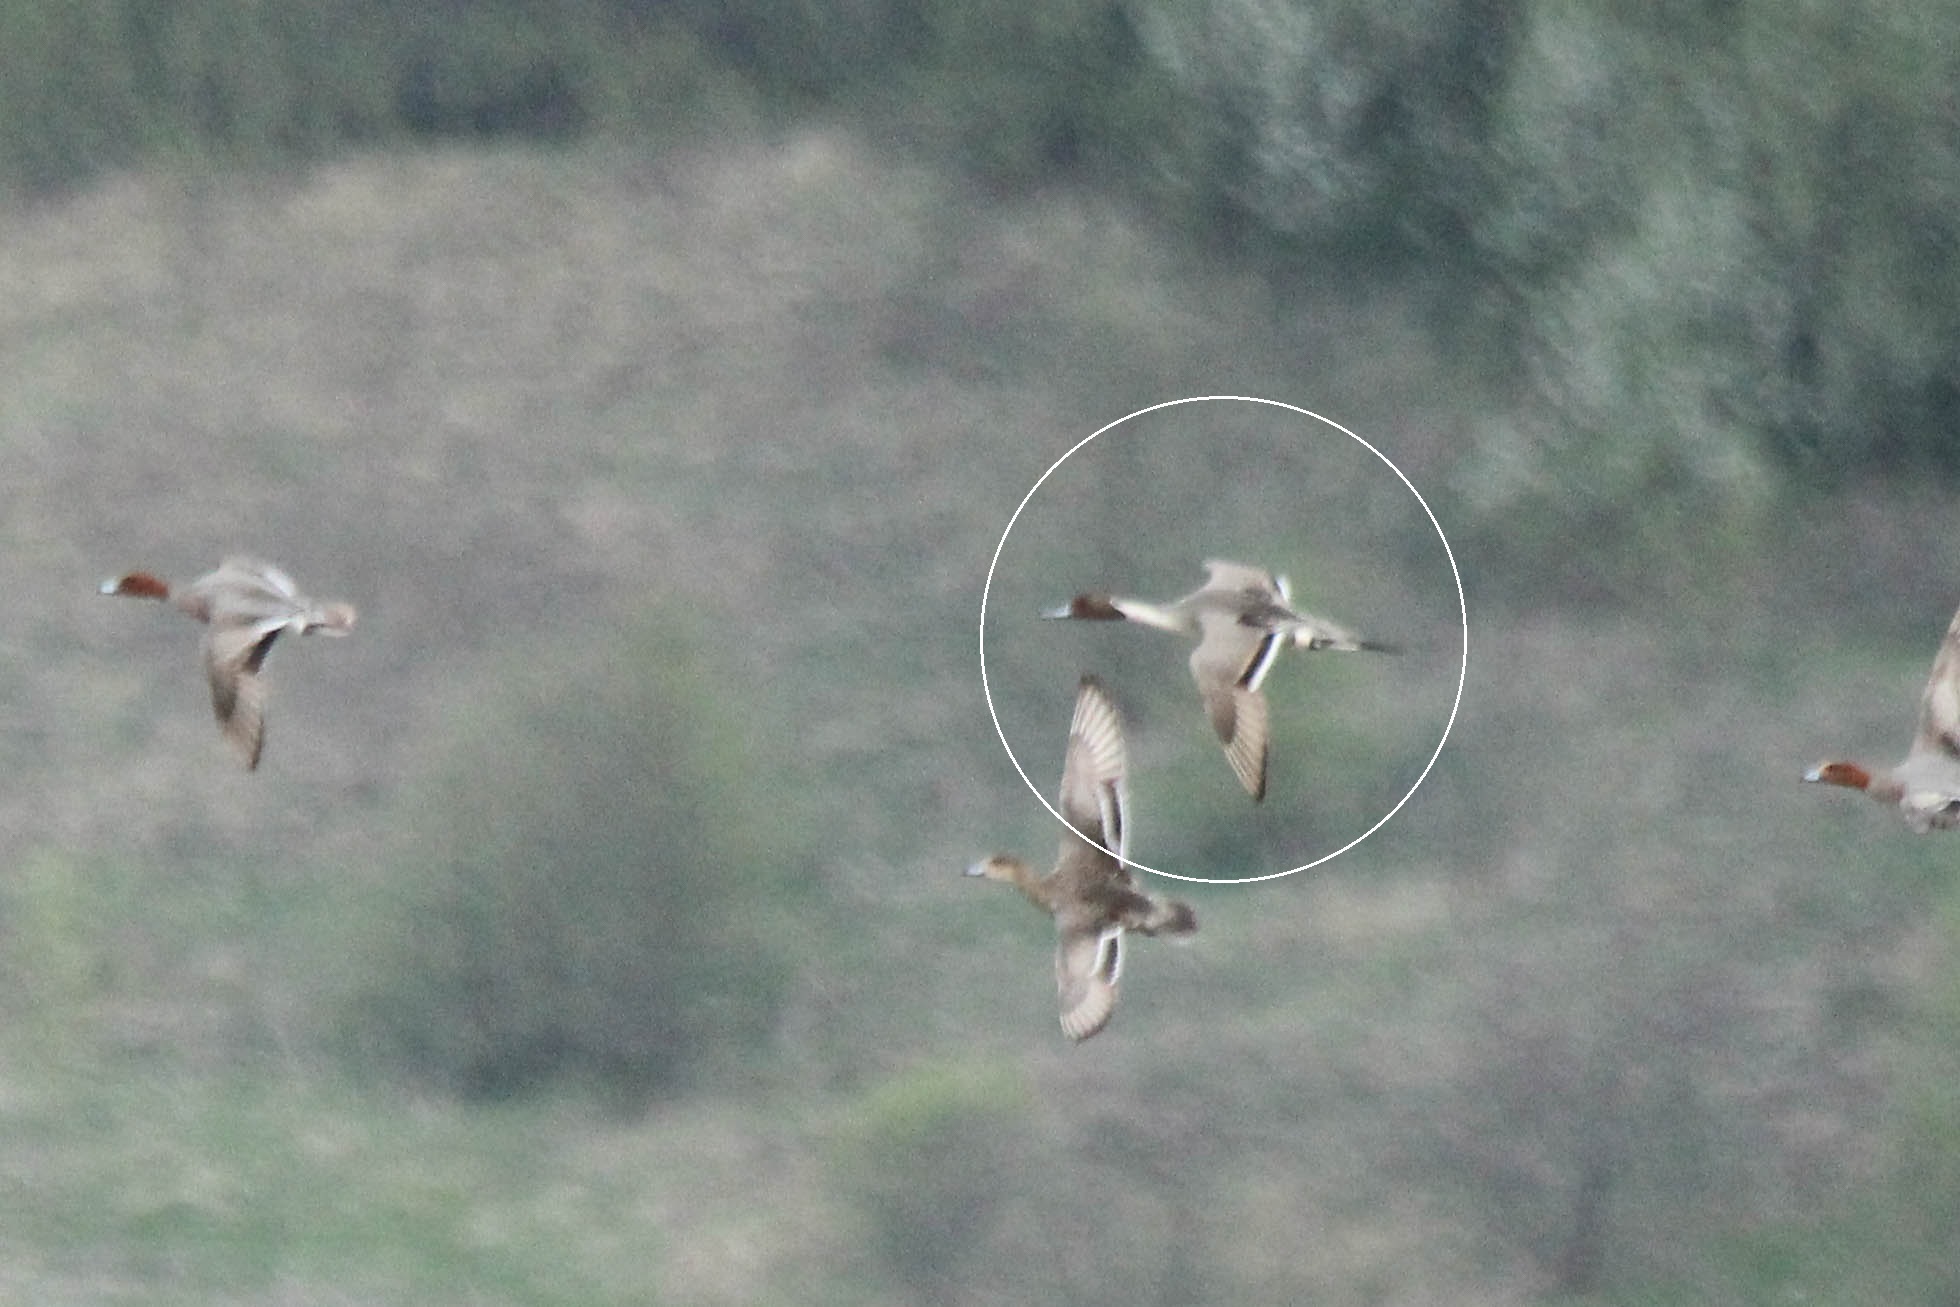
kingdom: Animalia
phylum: Chordata
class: Aves
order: Anseriformes
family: Anatidae
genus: Anas
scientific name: Anas acuta
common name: Northern pintail
